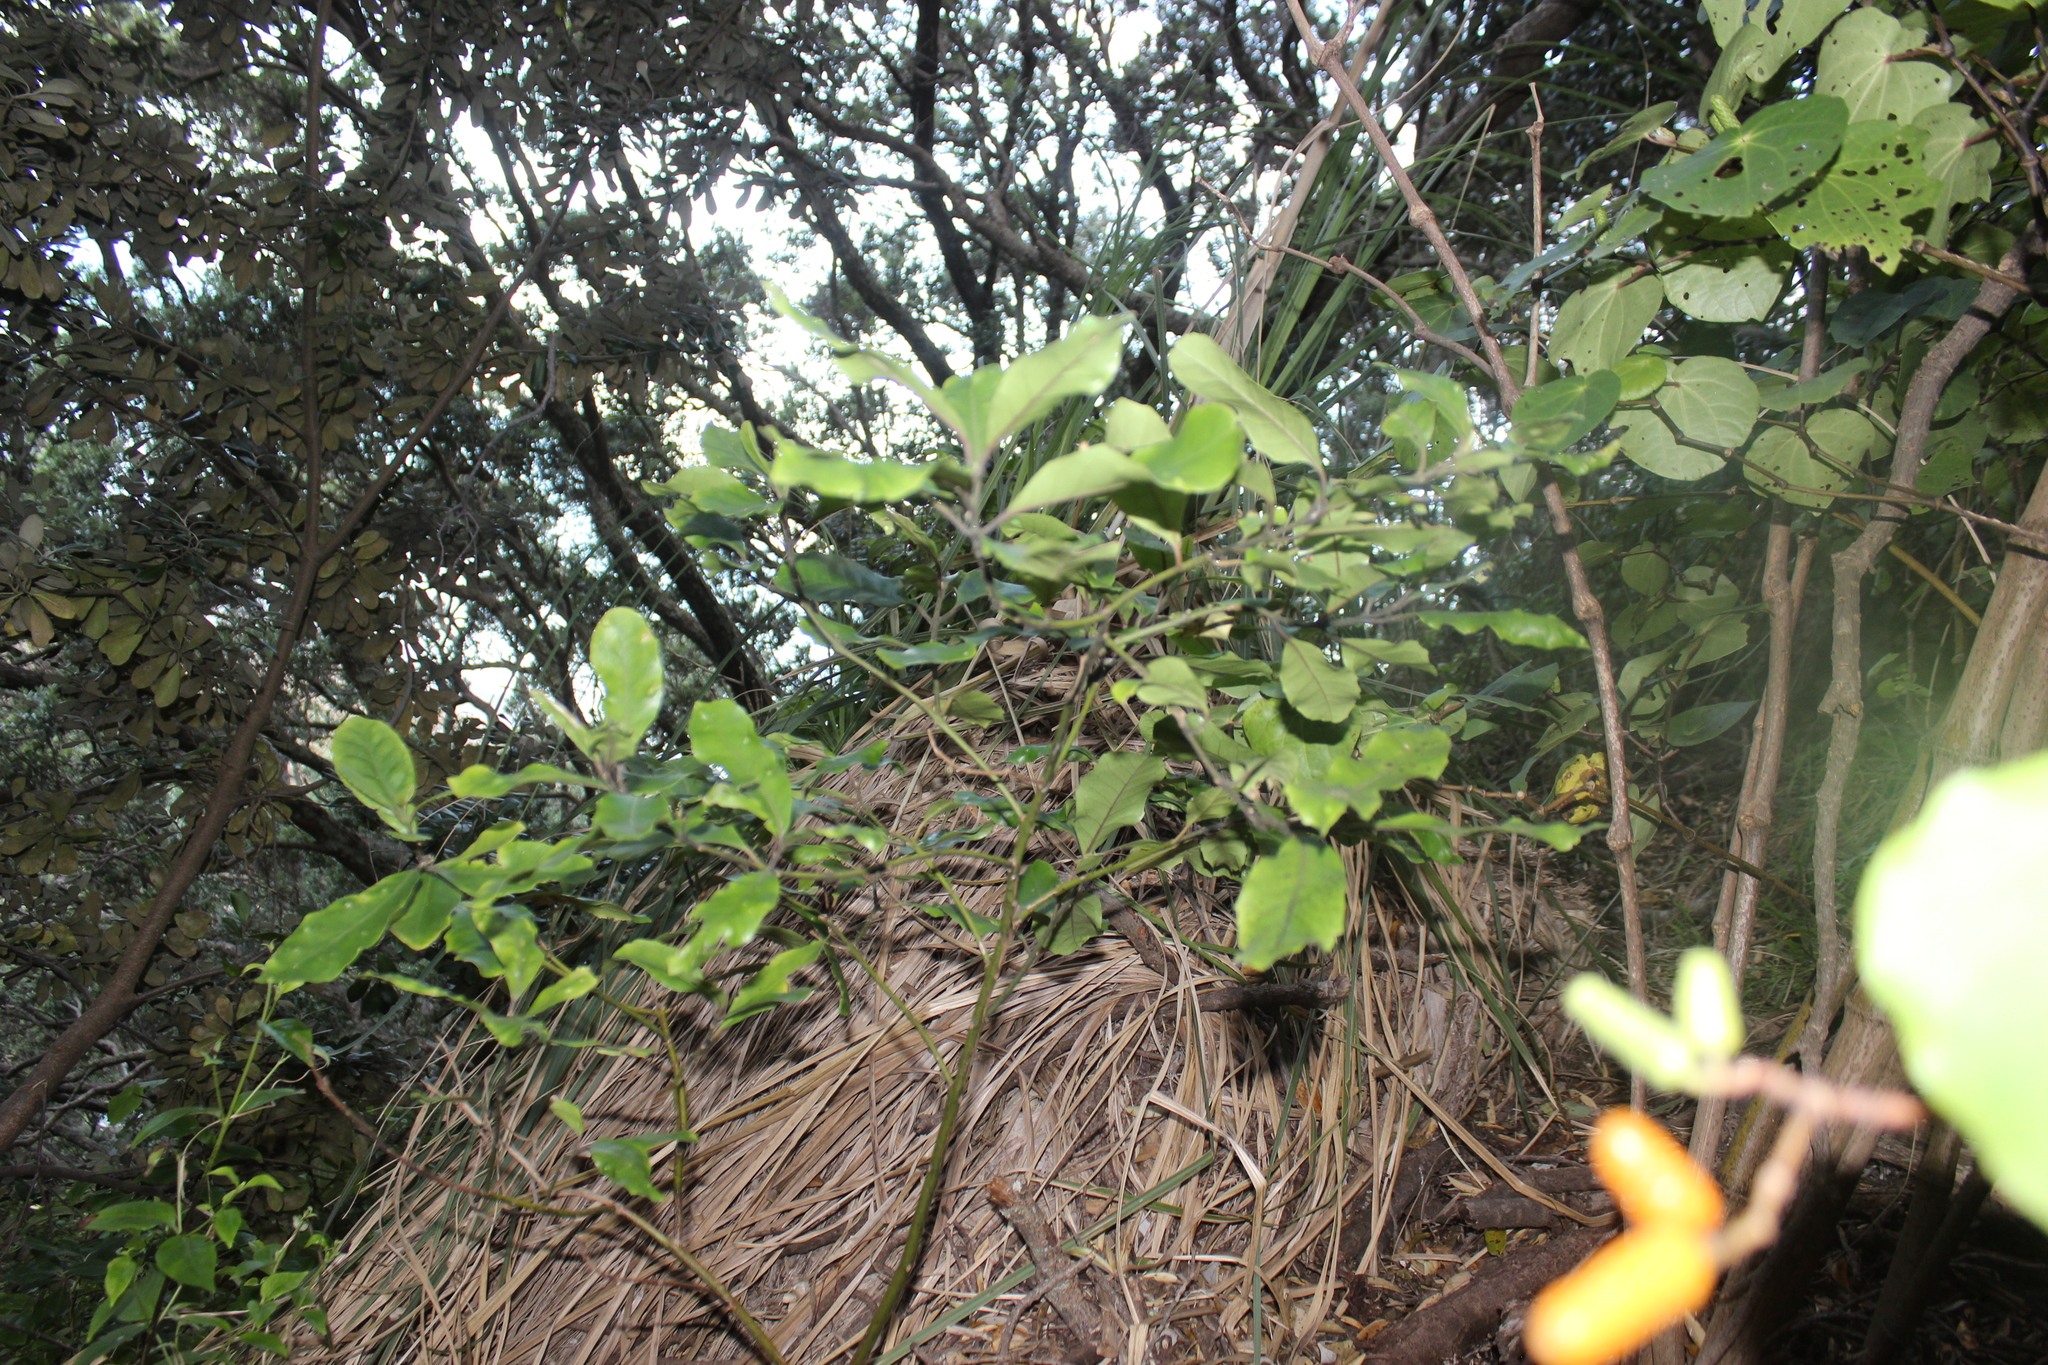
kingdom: Plantae
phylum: Tracheophyta
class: Magnoliopsida
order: Laurales
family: Monimiaceae
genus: Hedycarya
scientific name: Hedycarya arborea
